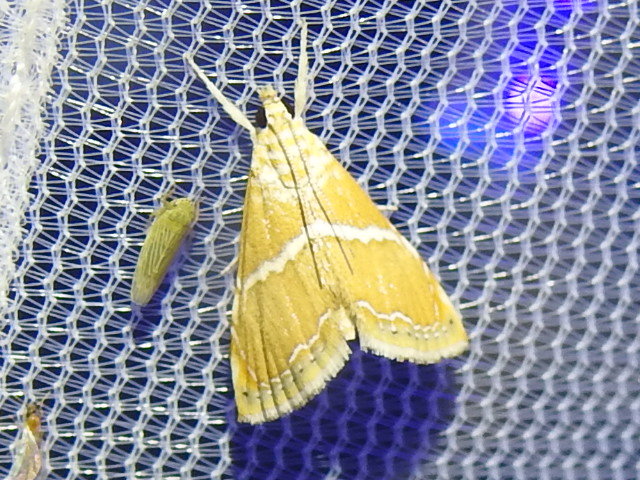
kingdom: Animalia
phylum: Arthropoda
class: Insecta
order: Lepidoptera
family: Crambidae
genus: Abegesta
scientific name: Abegesta remellalis
